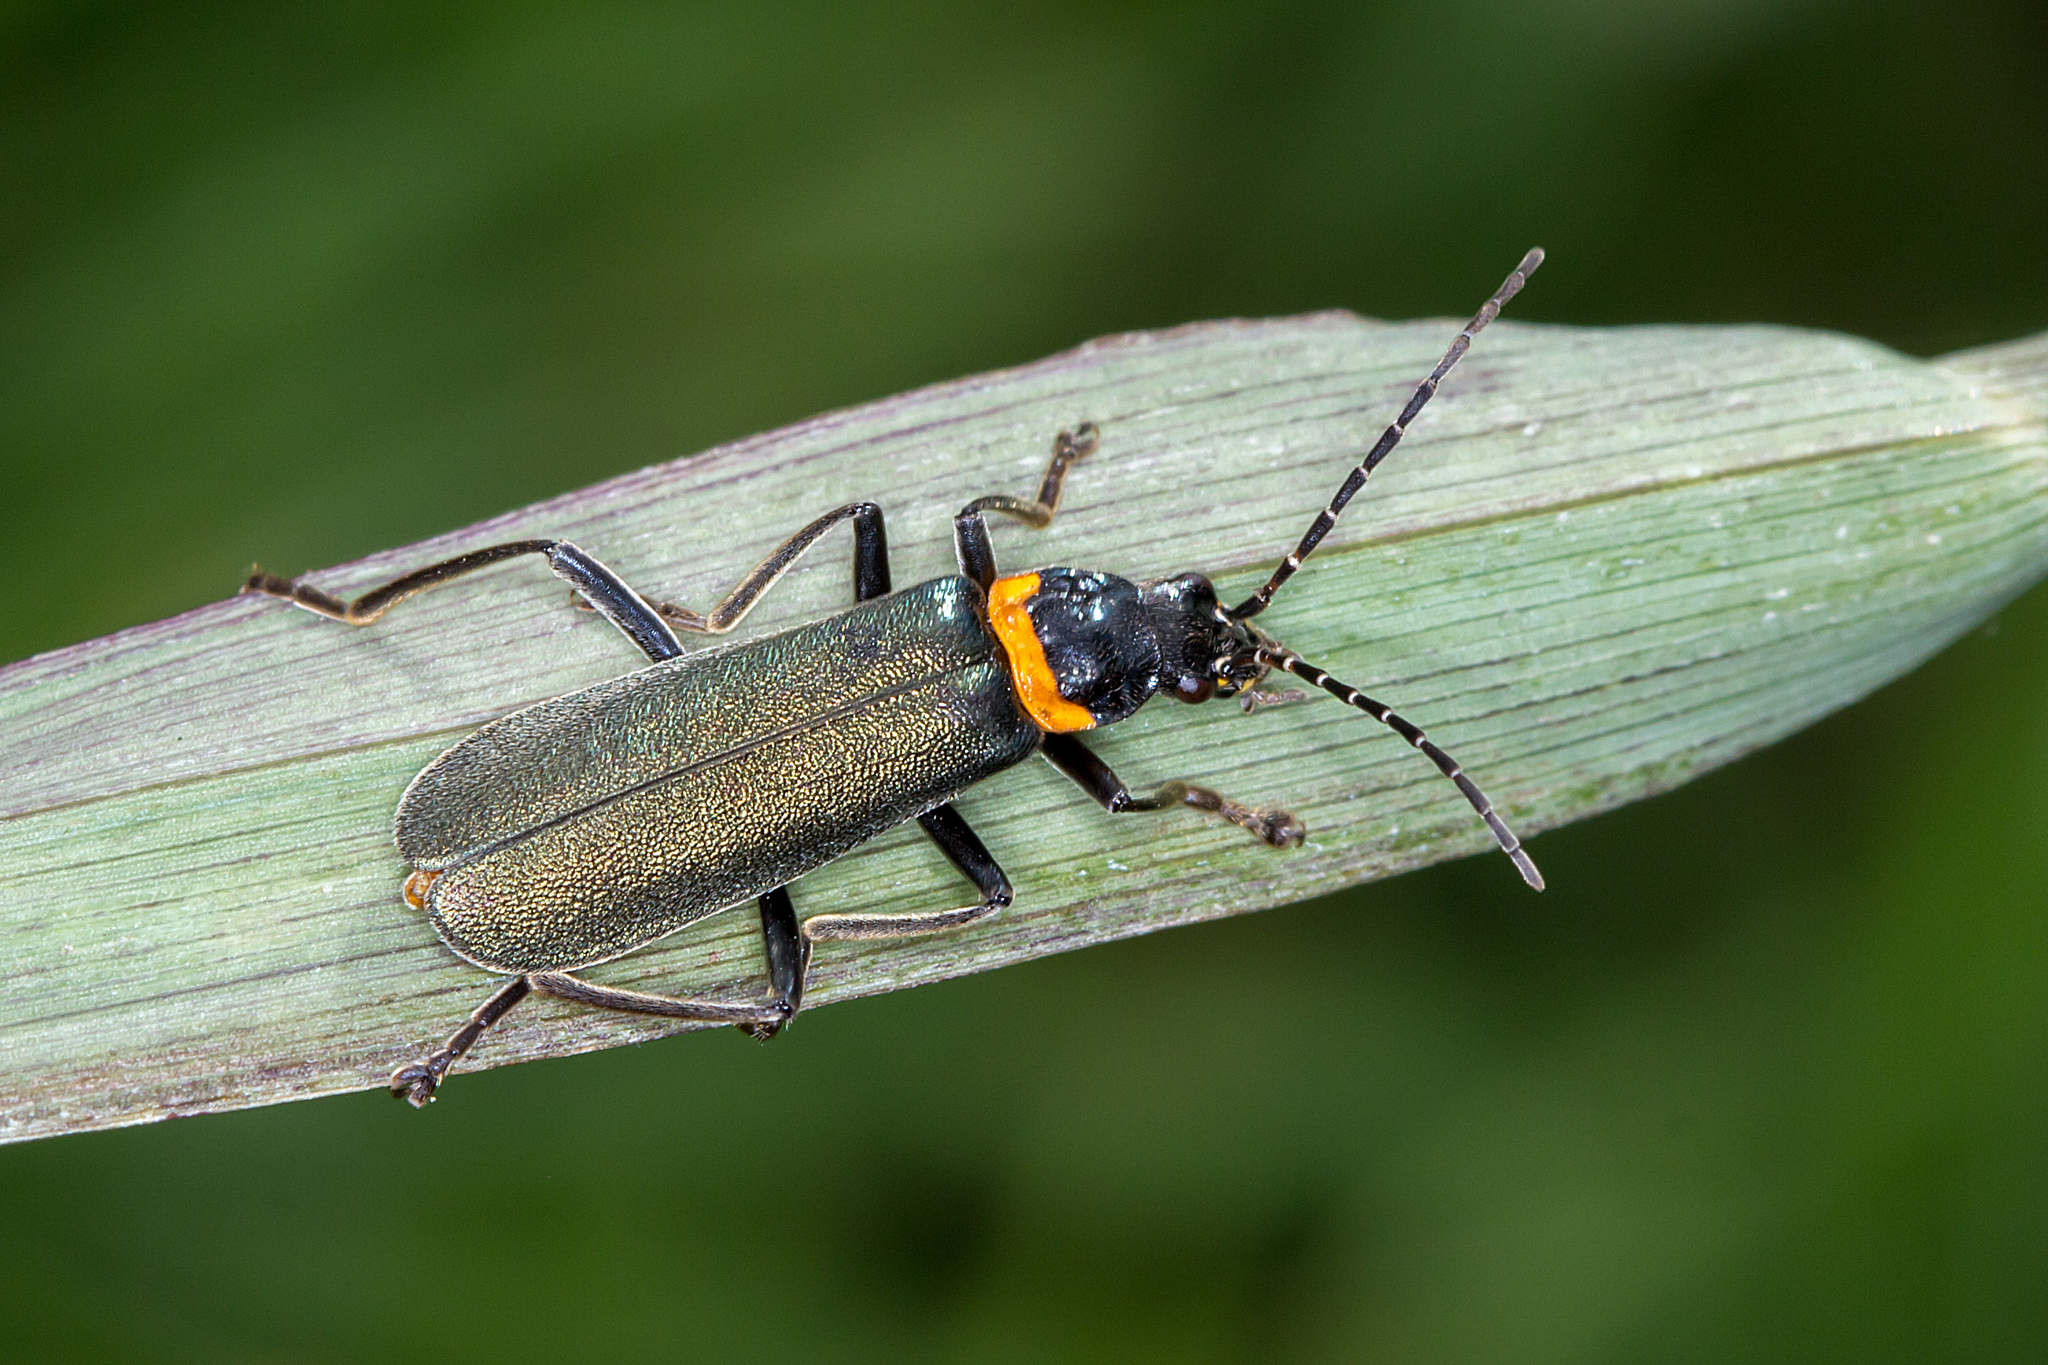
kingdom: Animalia
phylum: Arthropoda
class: Insecta
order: Coleoptera
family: Cantharidae
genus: Chauliognathus
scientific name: Chauliognathus
